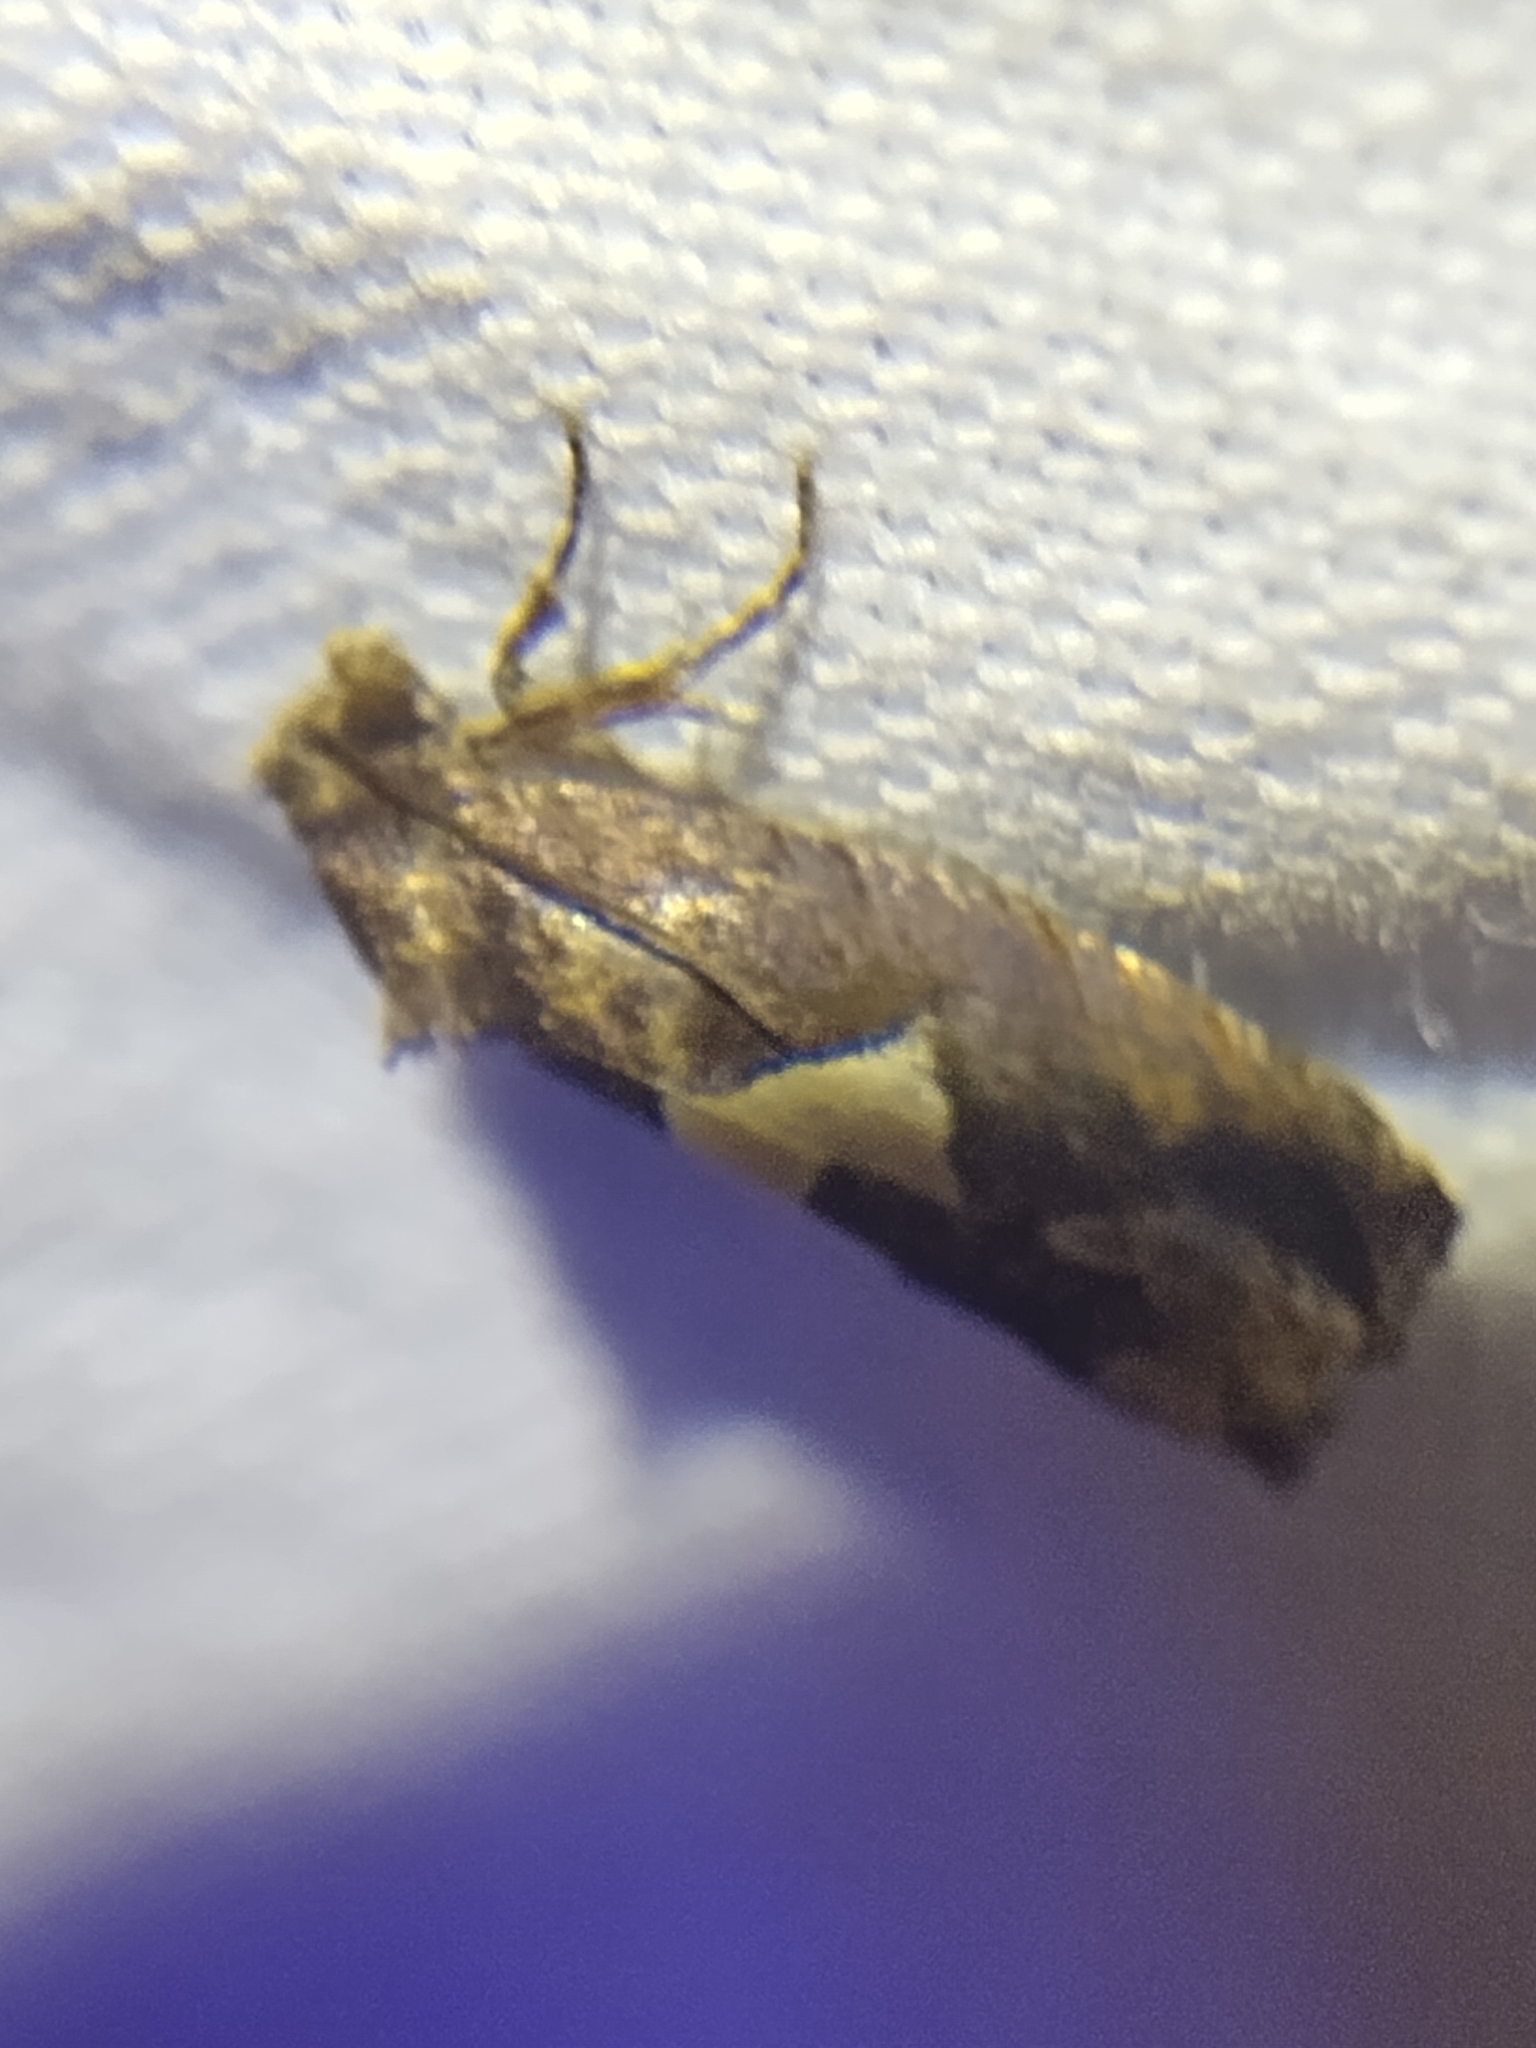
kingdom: Animalia
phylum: Arthropoda
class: Insecta
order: Lepidoptera
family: Tortricidae
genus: Epiblema
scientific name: Epiblema otiosana
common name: Bidens borer moth
